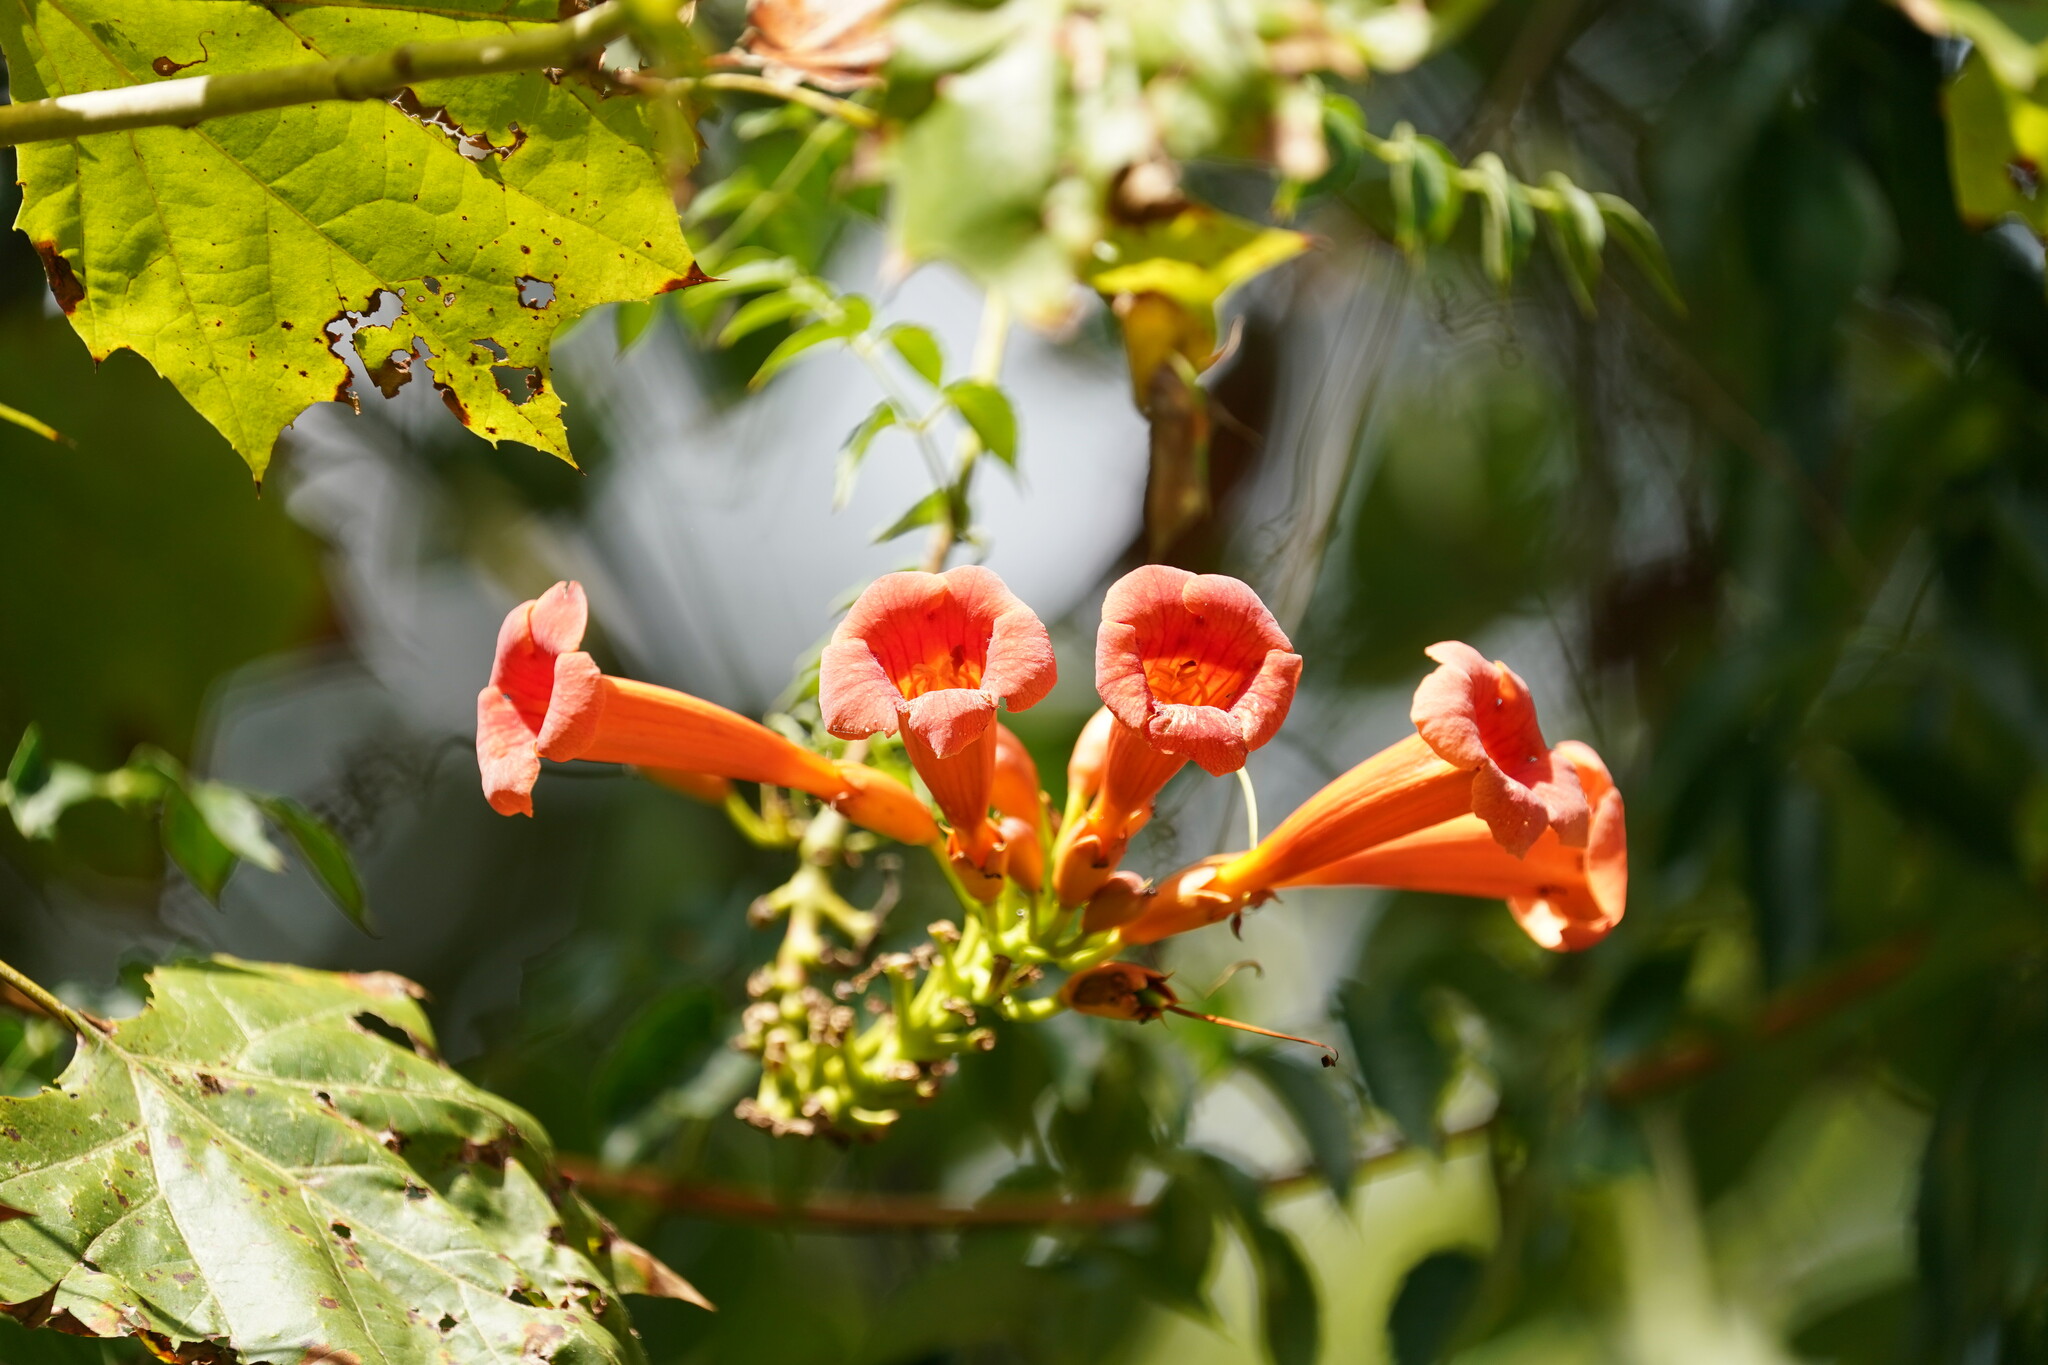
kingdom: Plantae
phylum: Tracheophyta
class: Magnoliopsida
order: Lamiales
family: Bignoniaceae
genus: Campsis
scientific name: Campsis radicans
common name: Trumpet-creeper
